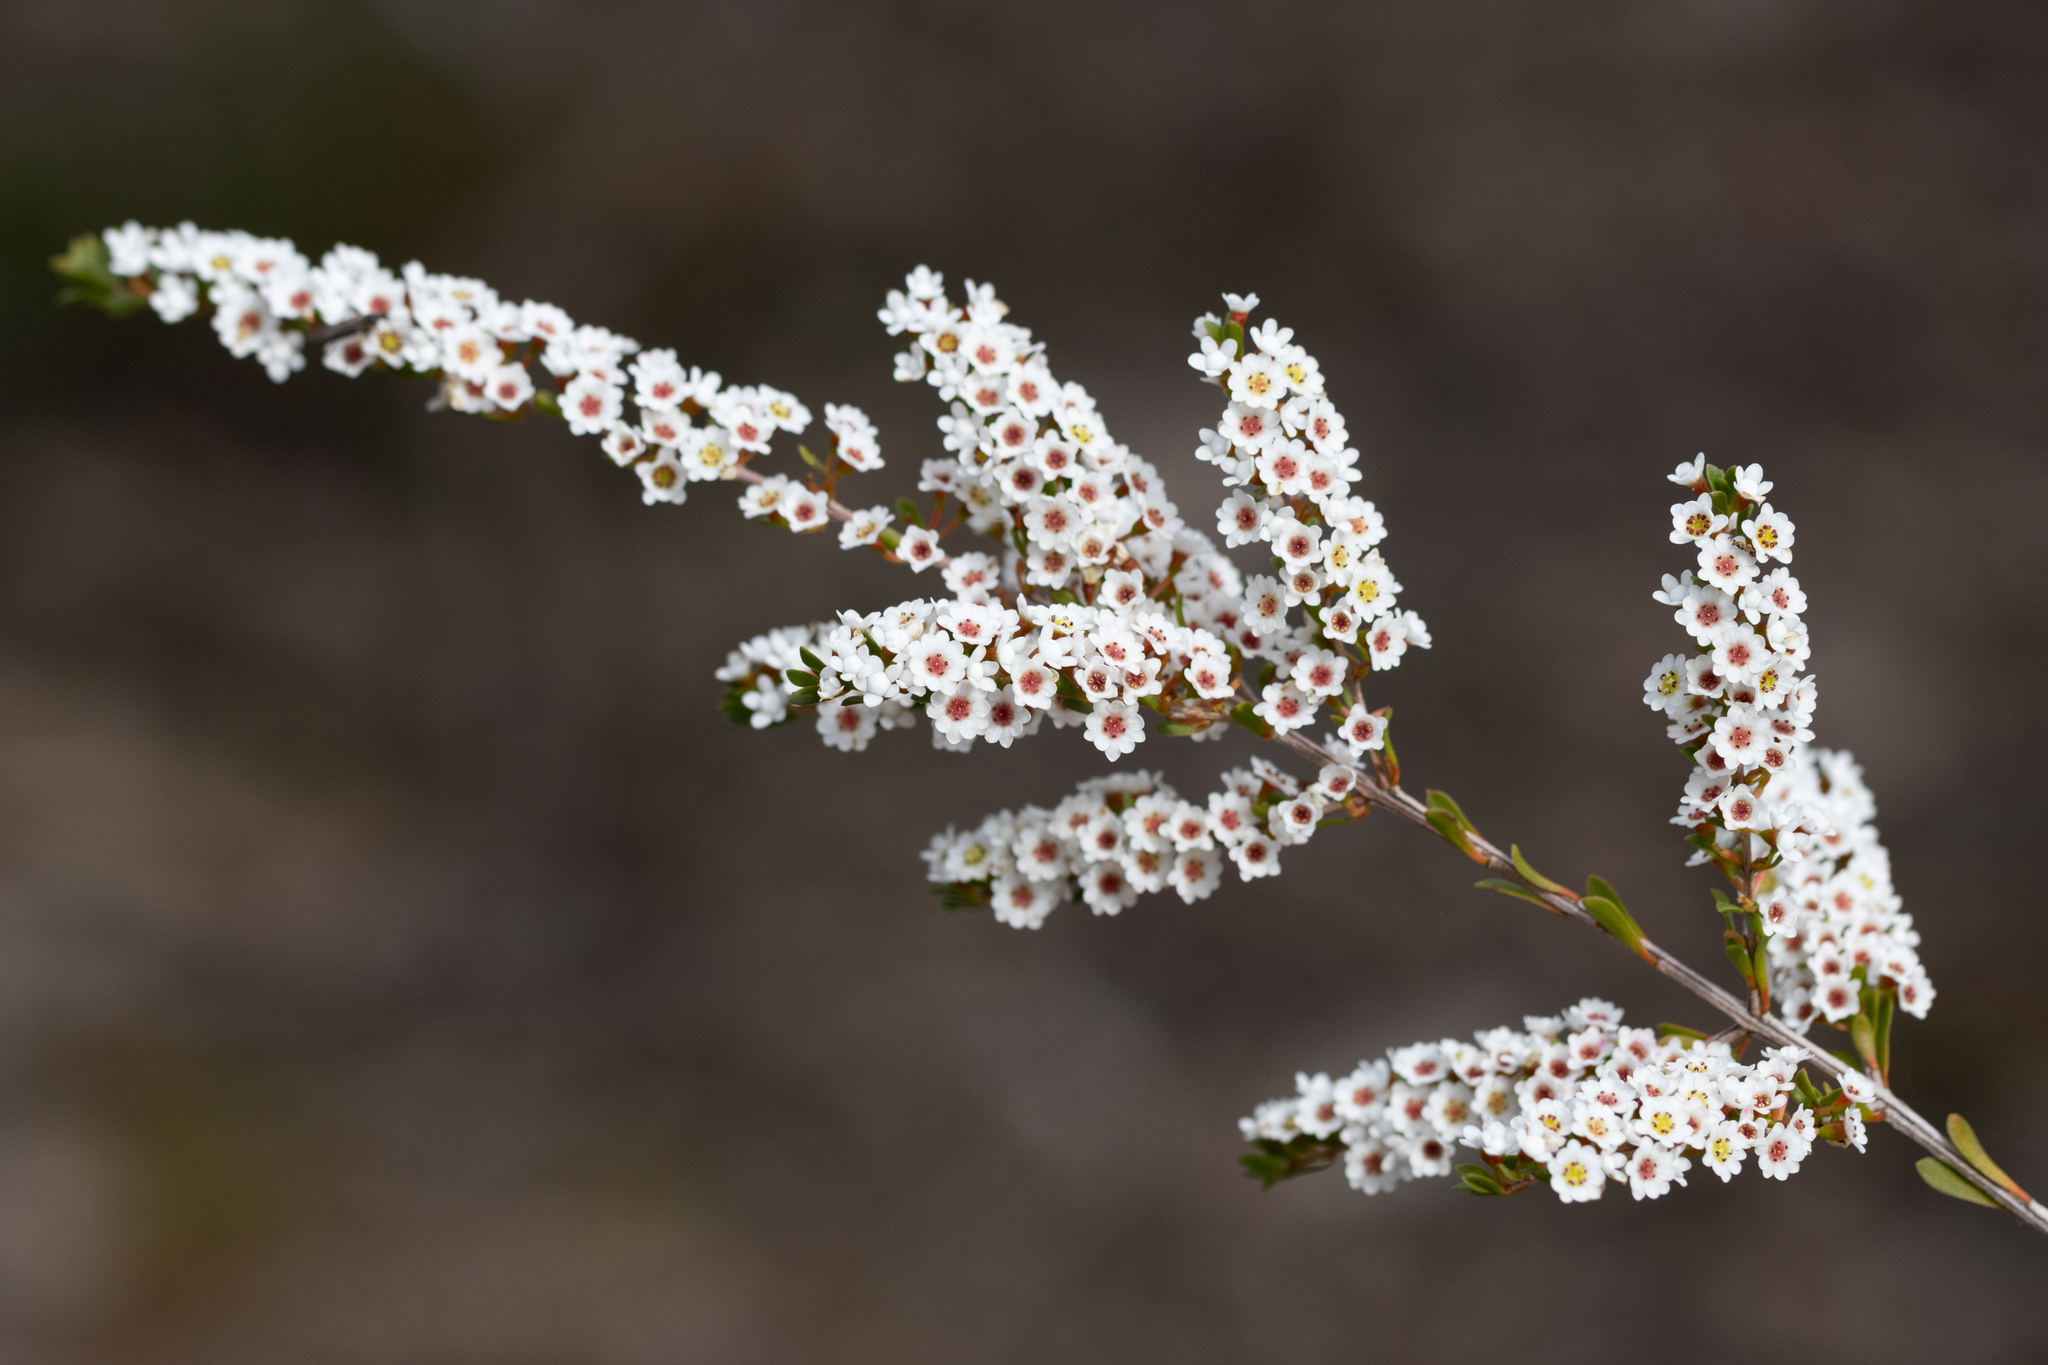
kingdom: Plantae
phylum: Tracheophyta
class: Magnoliopsida
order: Myrtales
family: Myrtaceae
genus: Thryptomene
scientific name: Thryptomene calycina
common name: Grampians thryptomene
